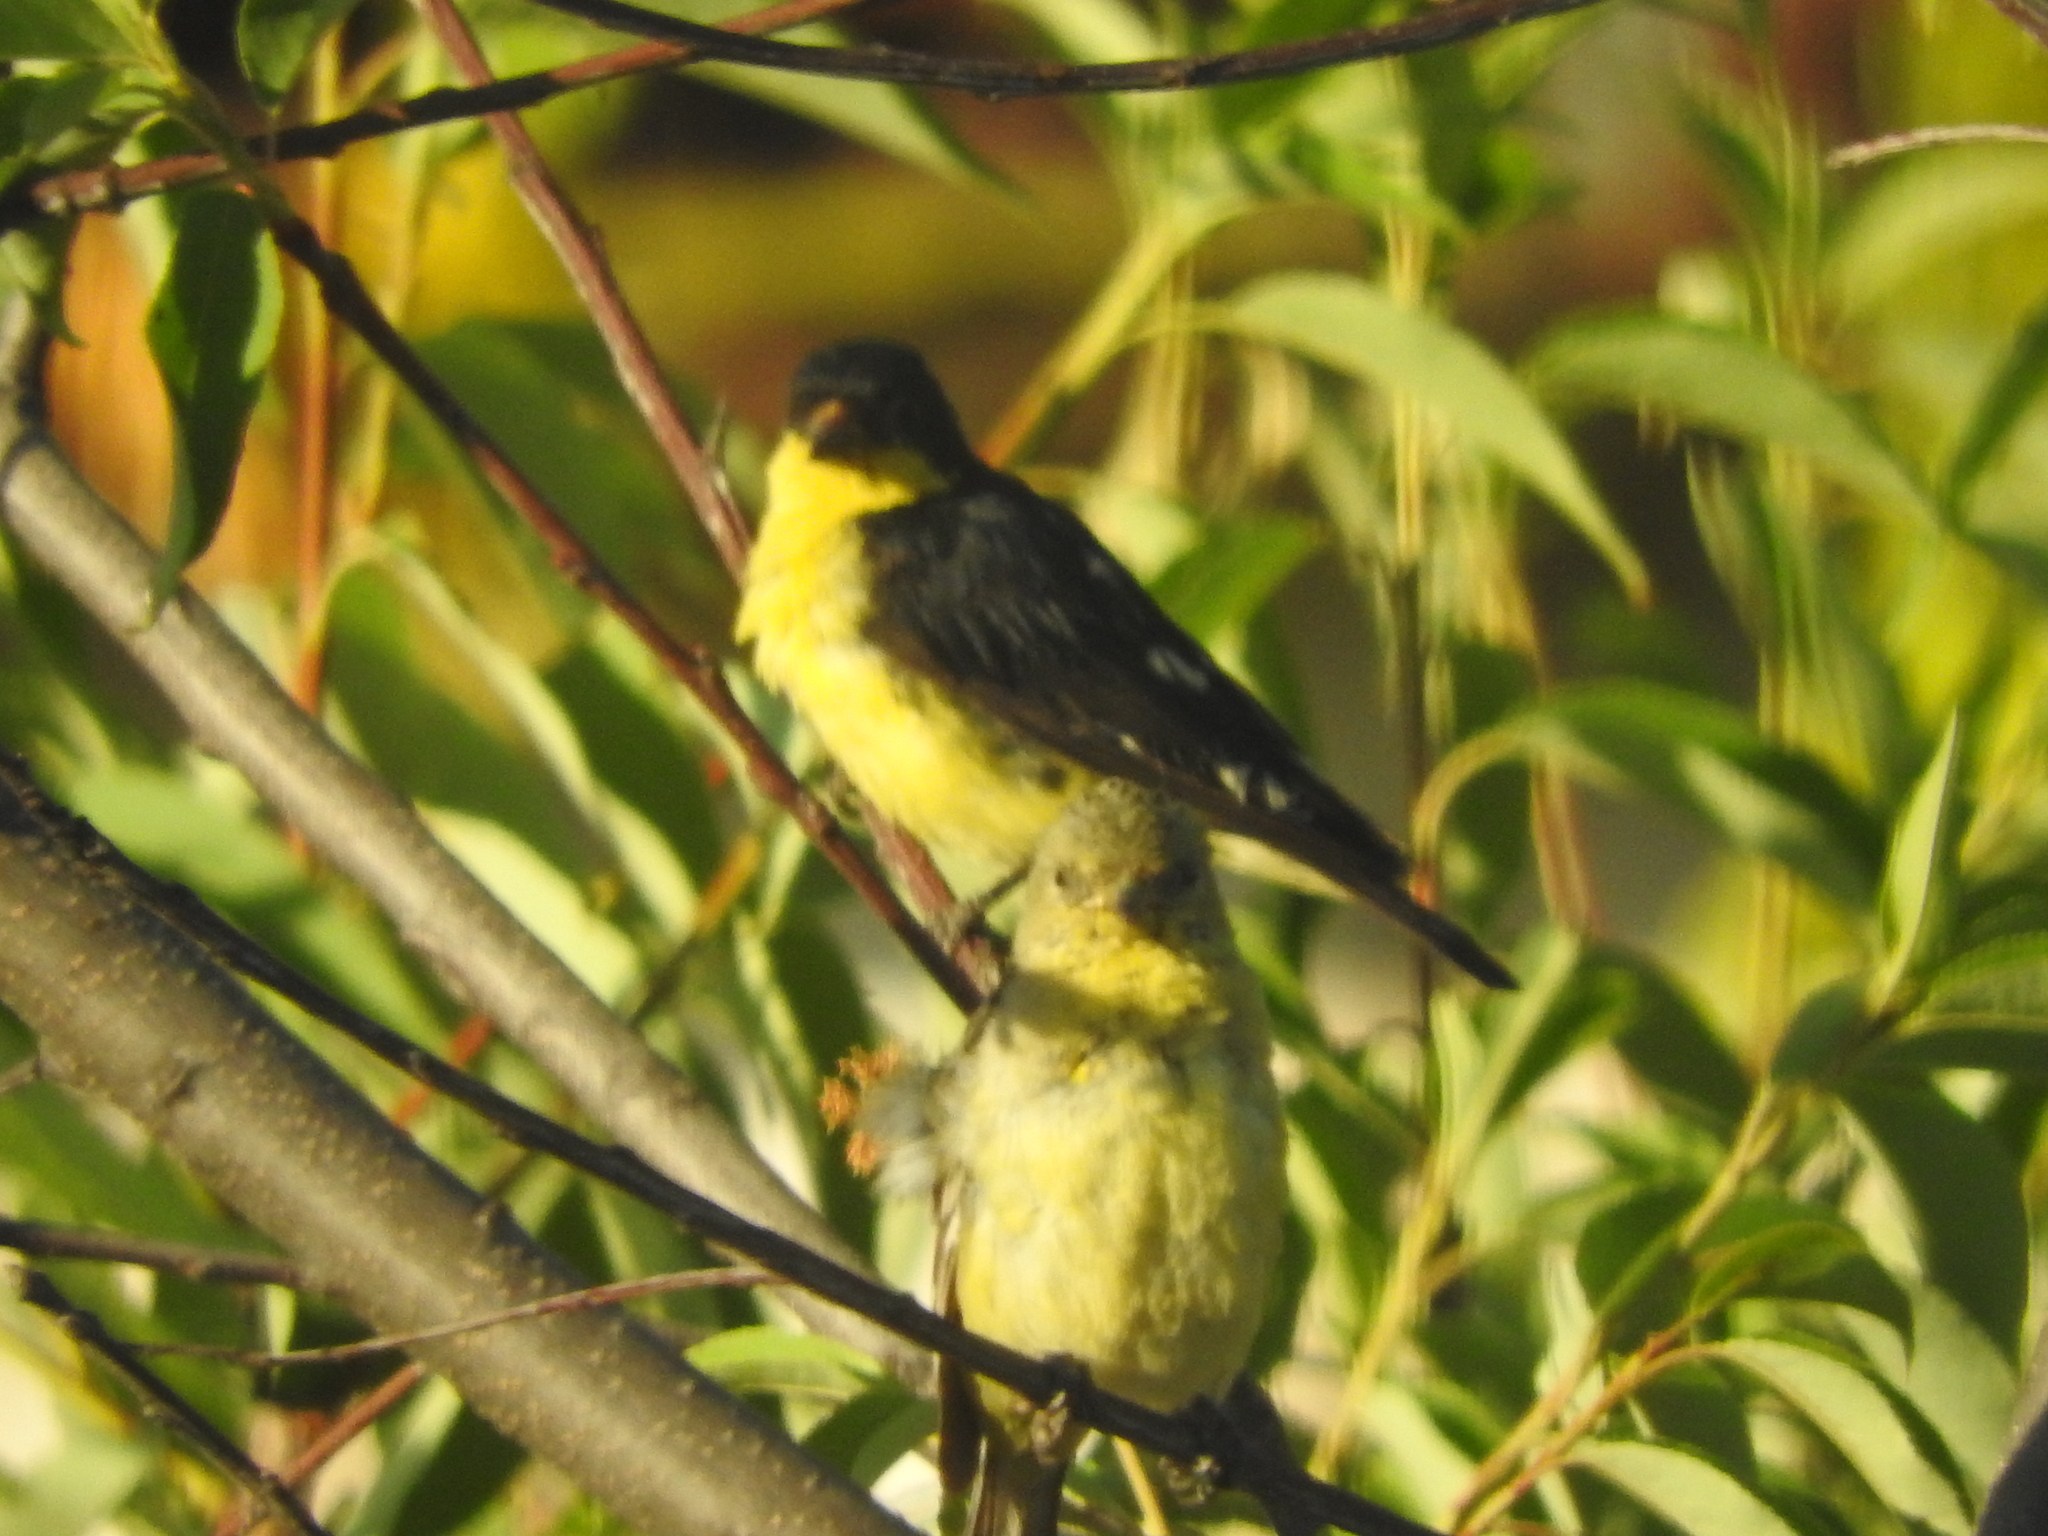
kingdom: Animalia
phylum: Chordata
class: Aves
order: Passeriformes
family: Fringillidae
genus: Spinus
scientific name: Spinus psaltria
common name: Lesser goldfinch
